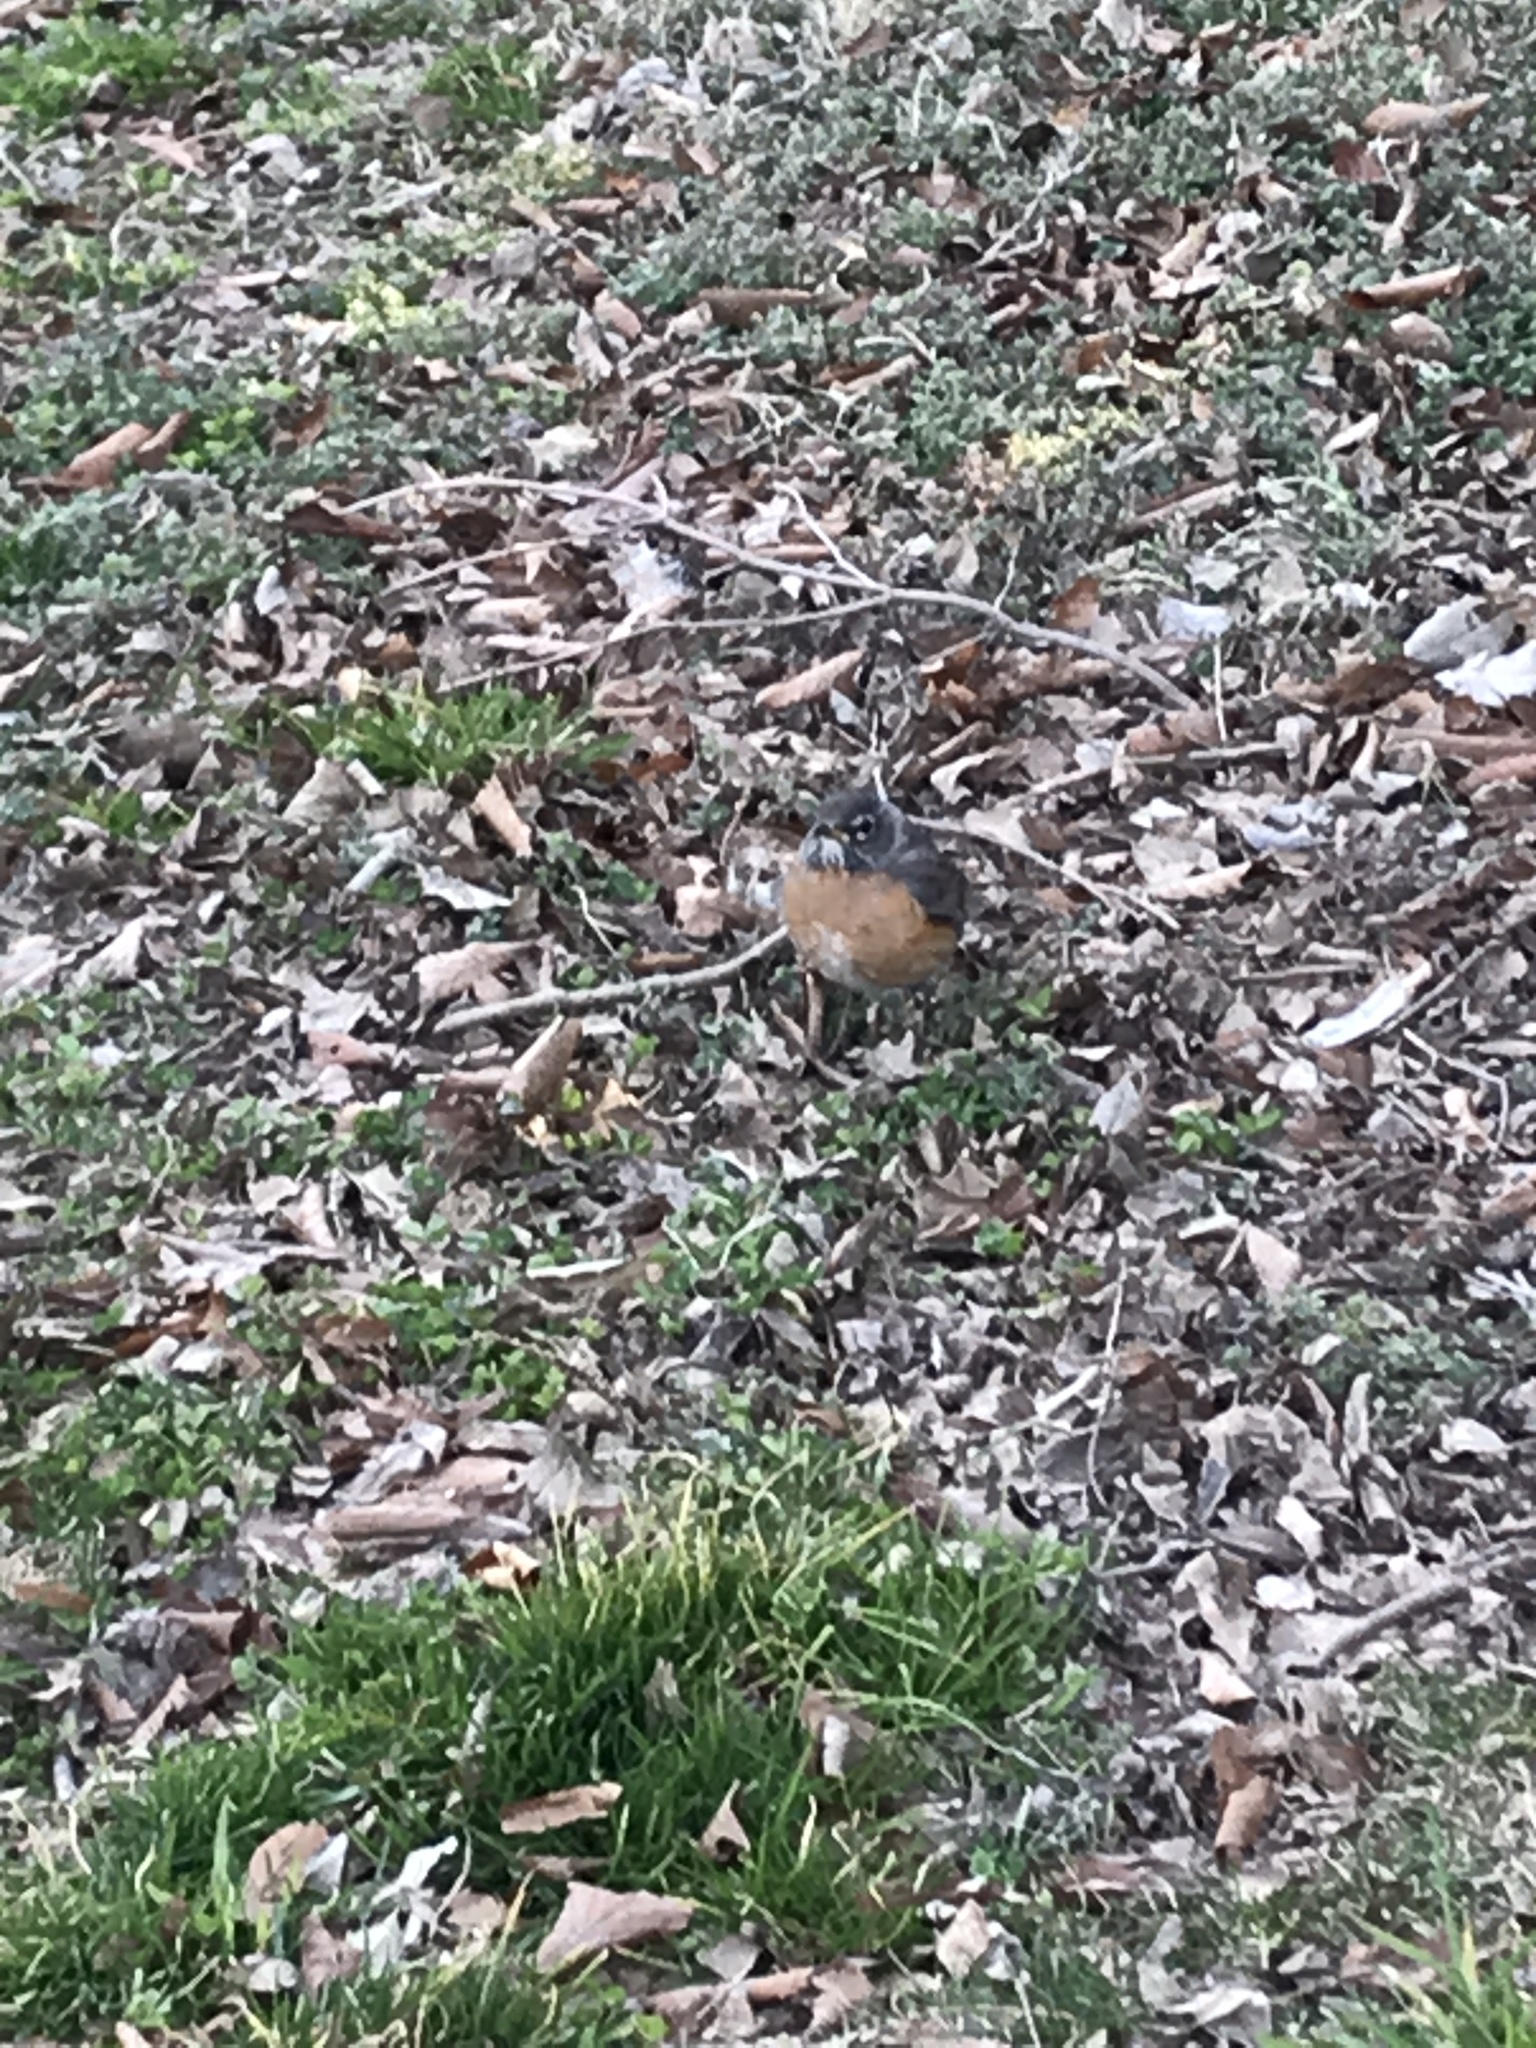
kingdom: Animalia
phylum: Chordata
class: Aves
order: Passeriformes
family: Turdidae
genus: Turdus
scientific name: Turdus migratorius
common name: American robin
